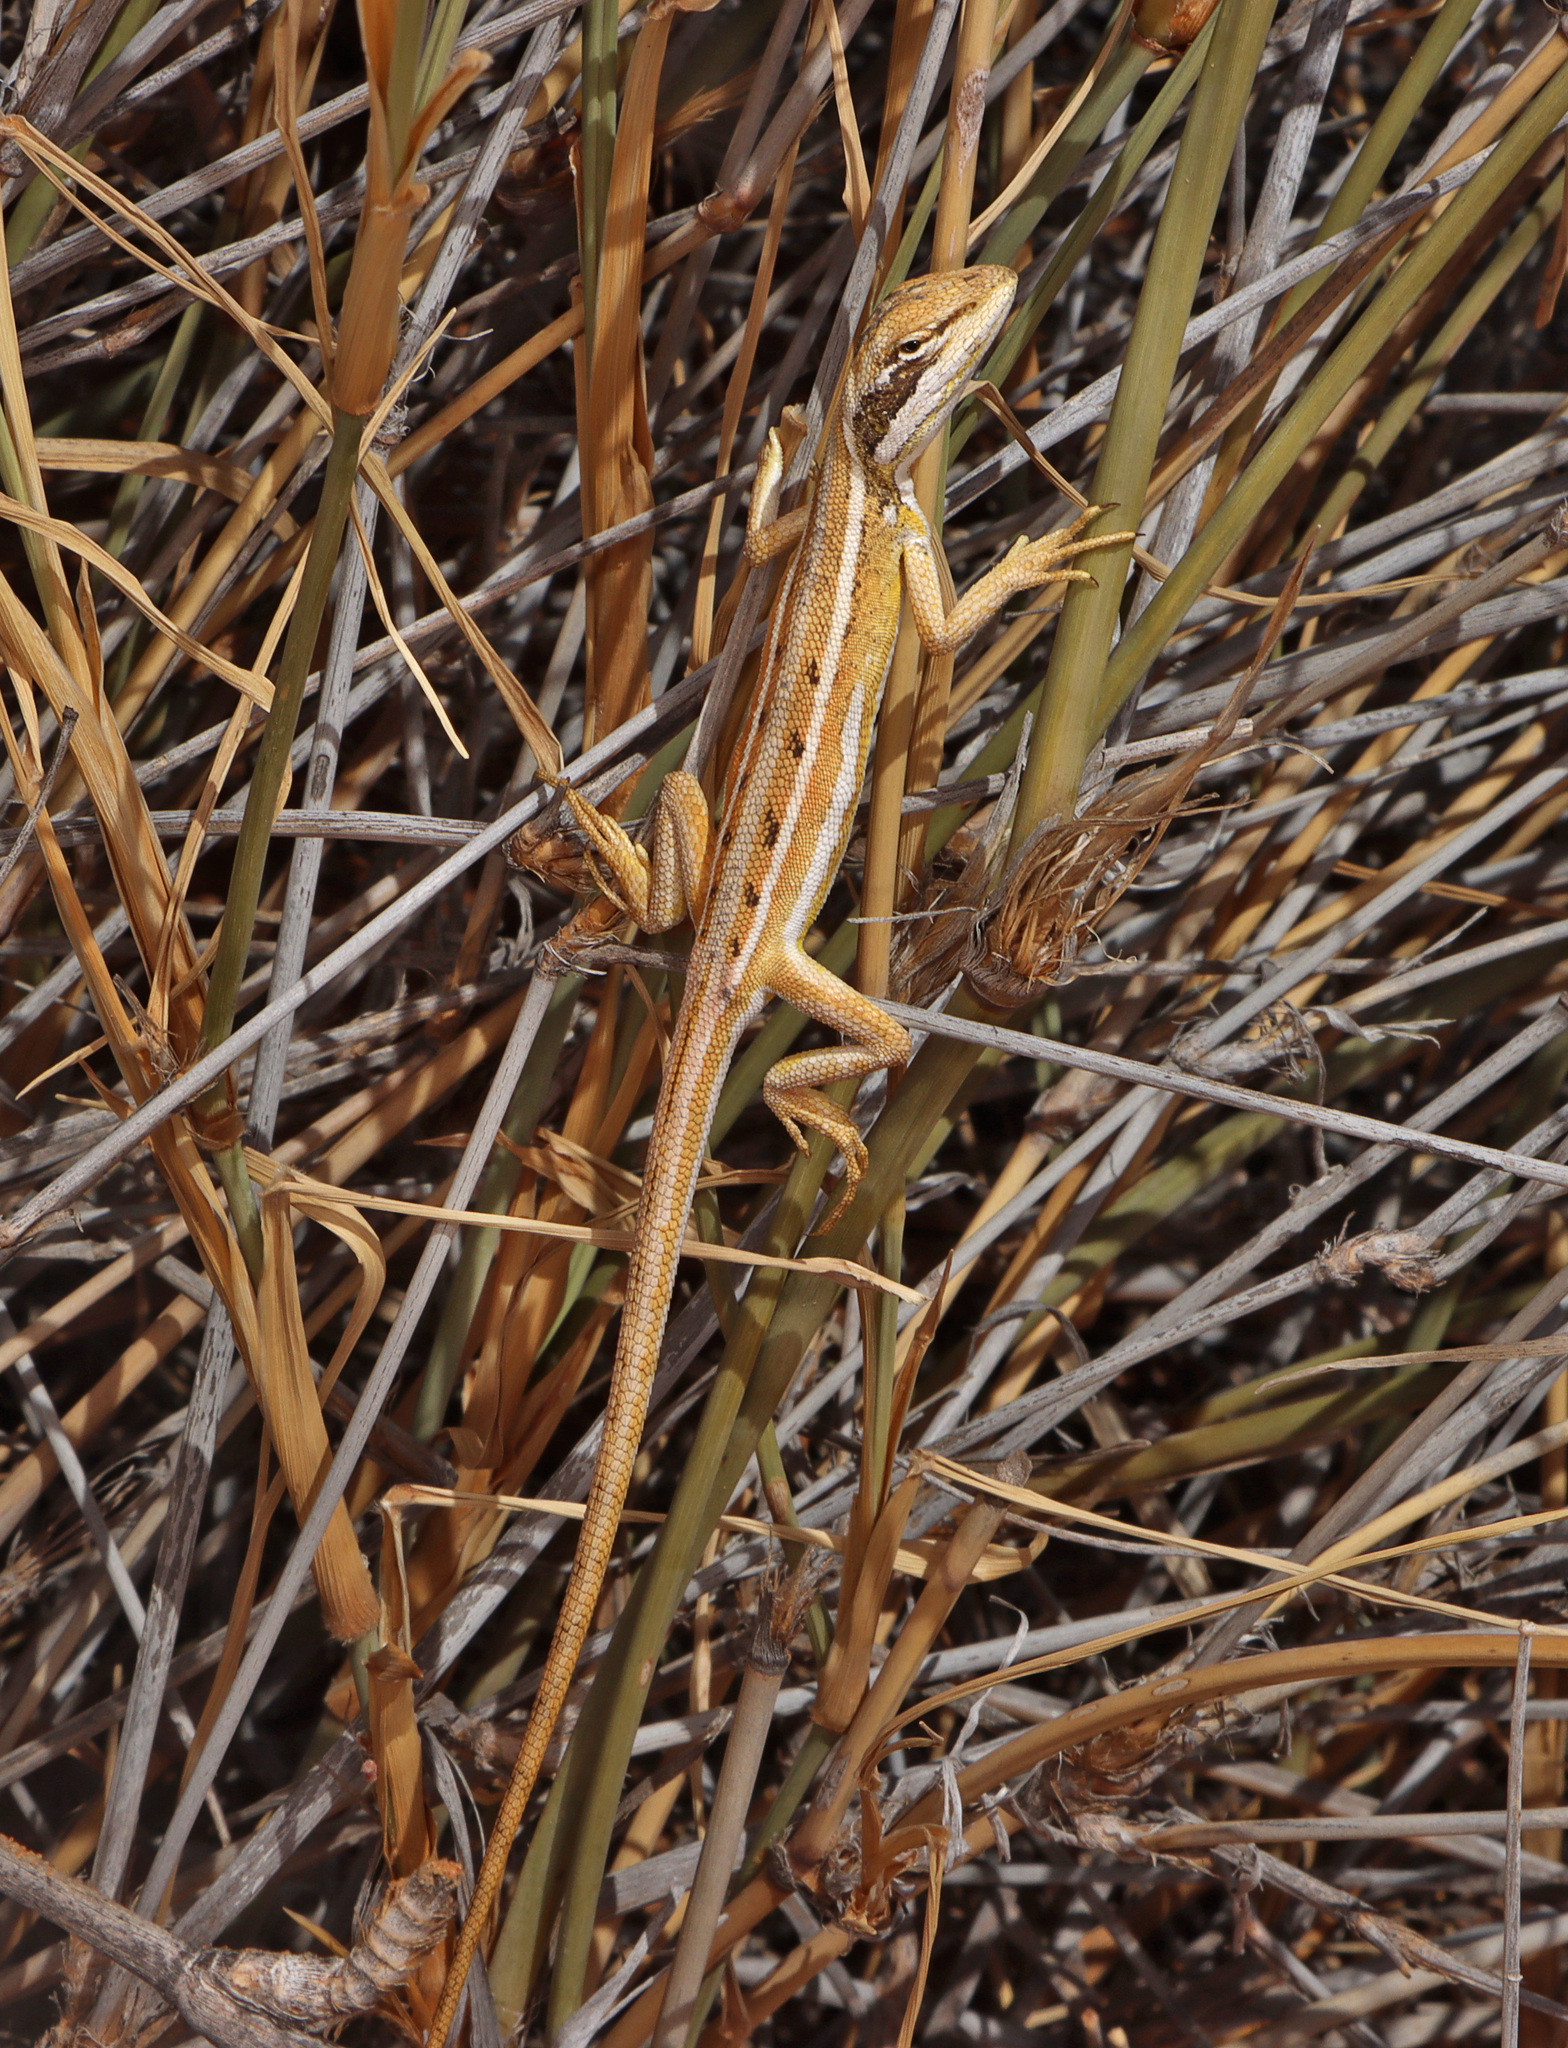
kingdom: Animalia
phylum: Chordata
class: Squamata
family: Agamidae
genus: Diporiphora
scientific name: Diporiphora winneckei
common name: Canegrass two-line dragon
